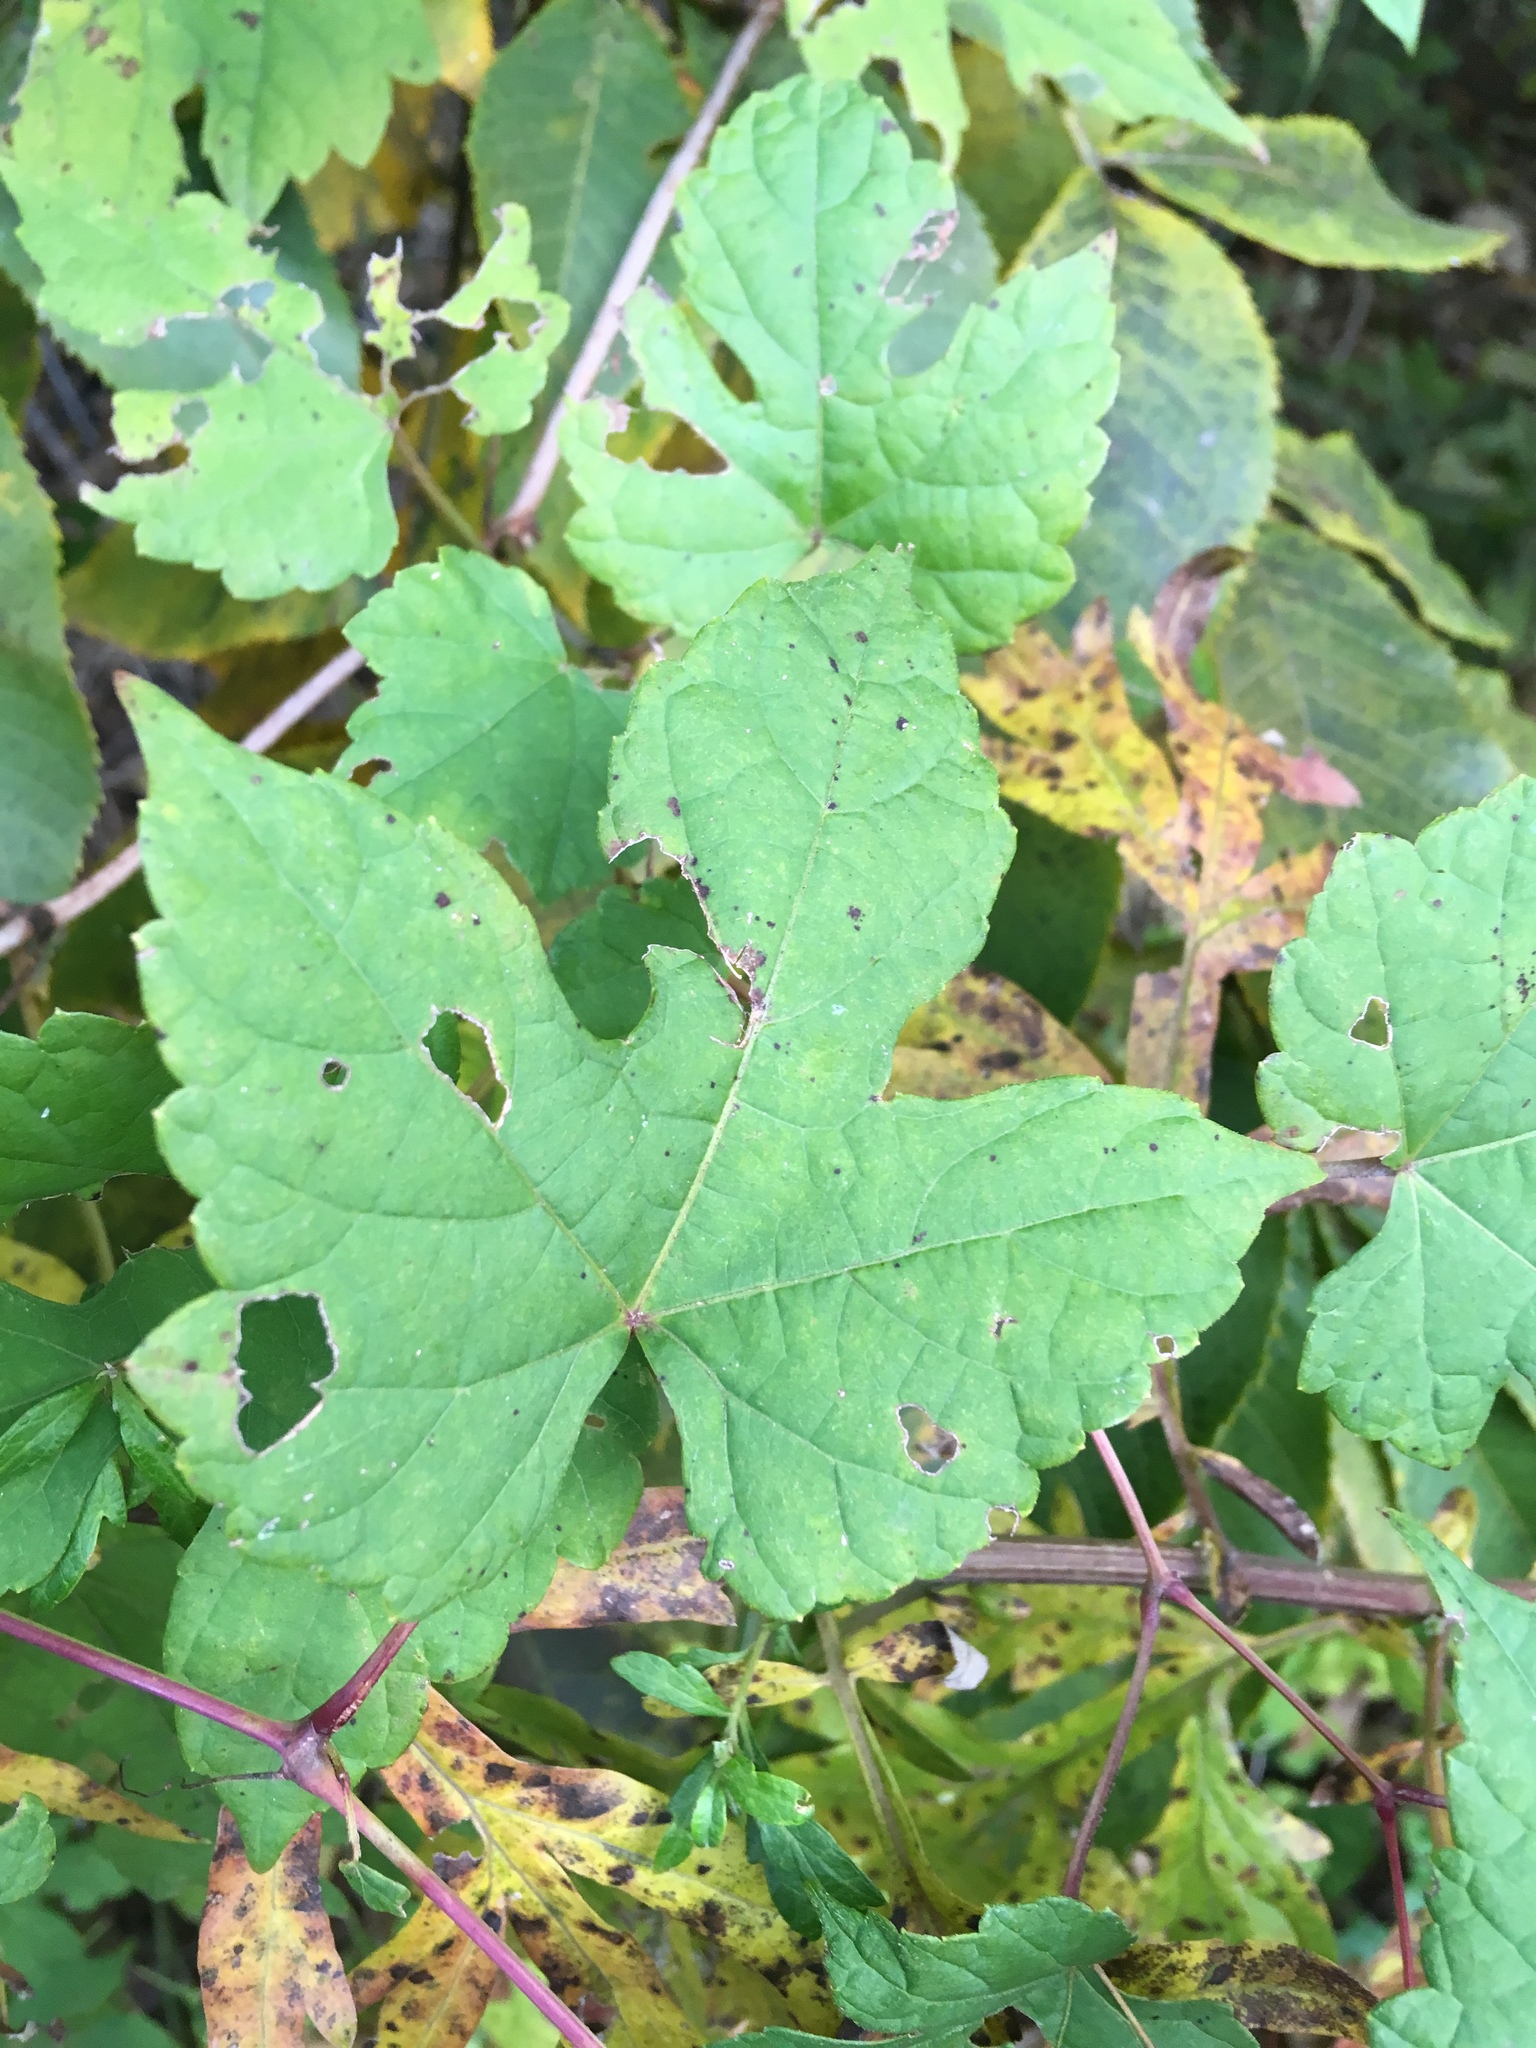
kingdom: Plantae
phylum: Tracheophyta
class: Magnoliopsida
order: Vitales
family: Vitaceae
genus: Ampelopsis
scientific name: Ampelopsis glandulosa
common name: Amur peppervine
